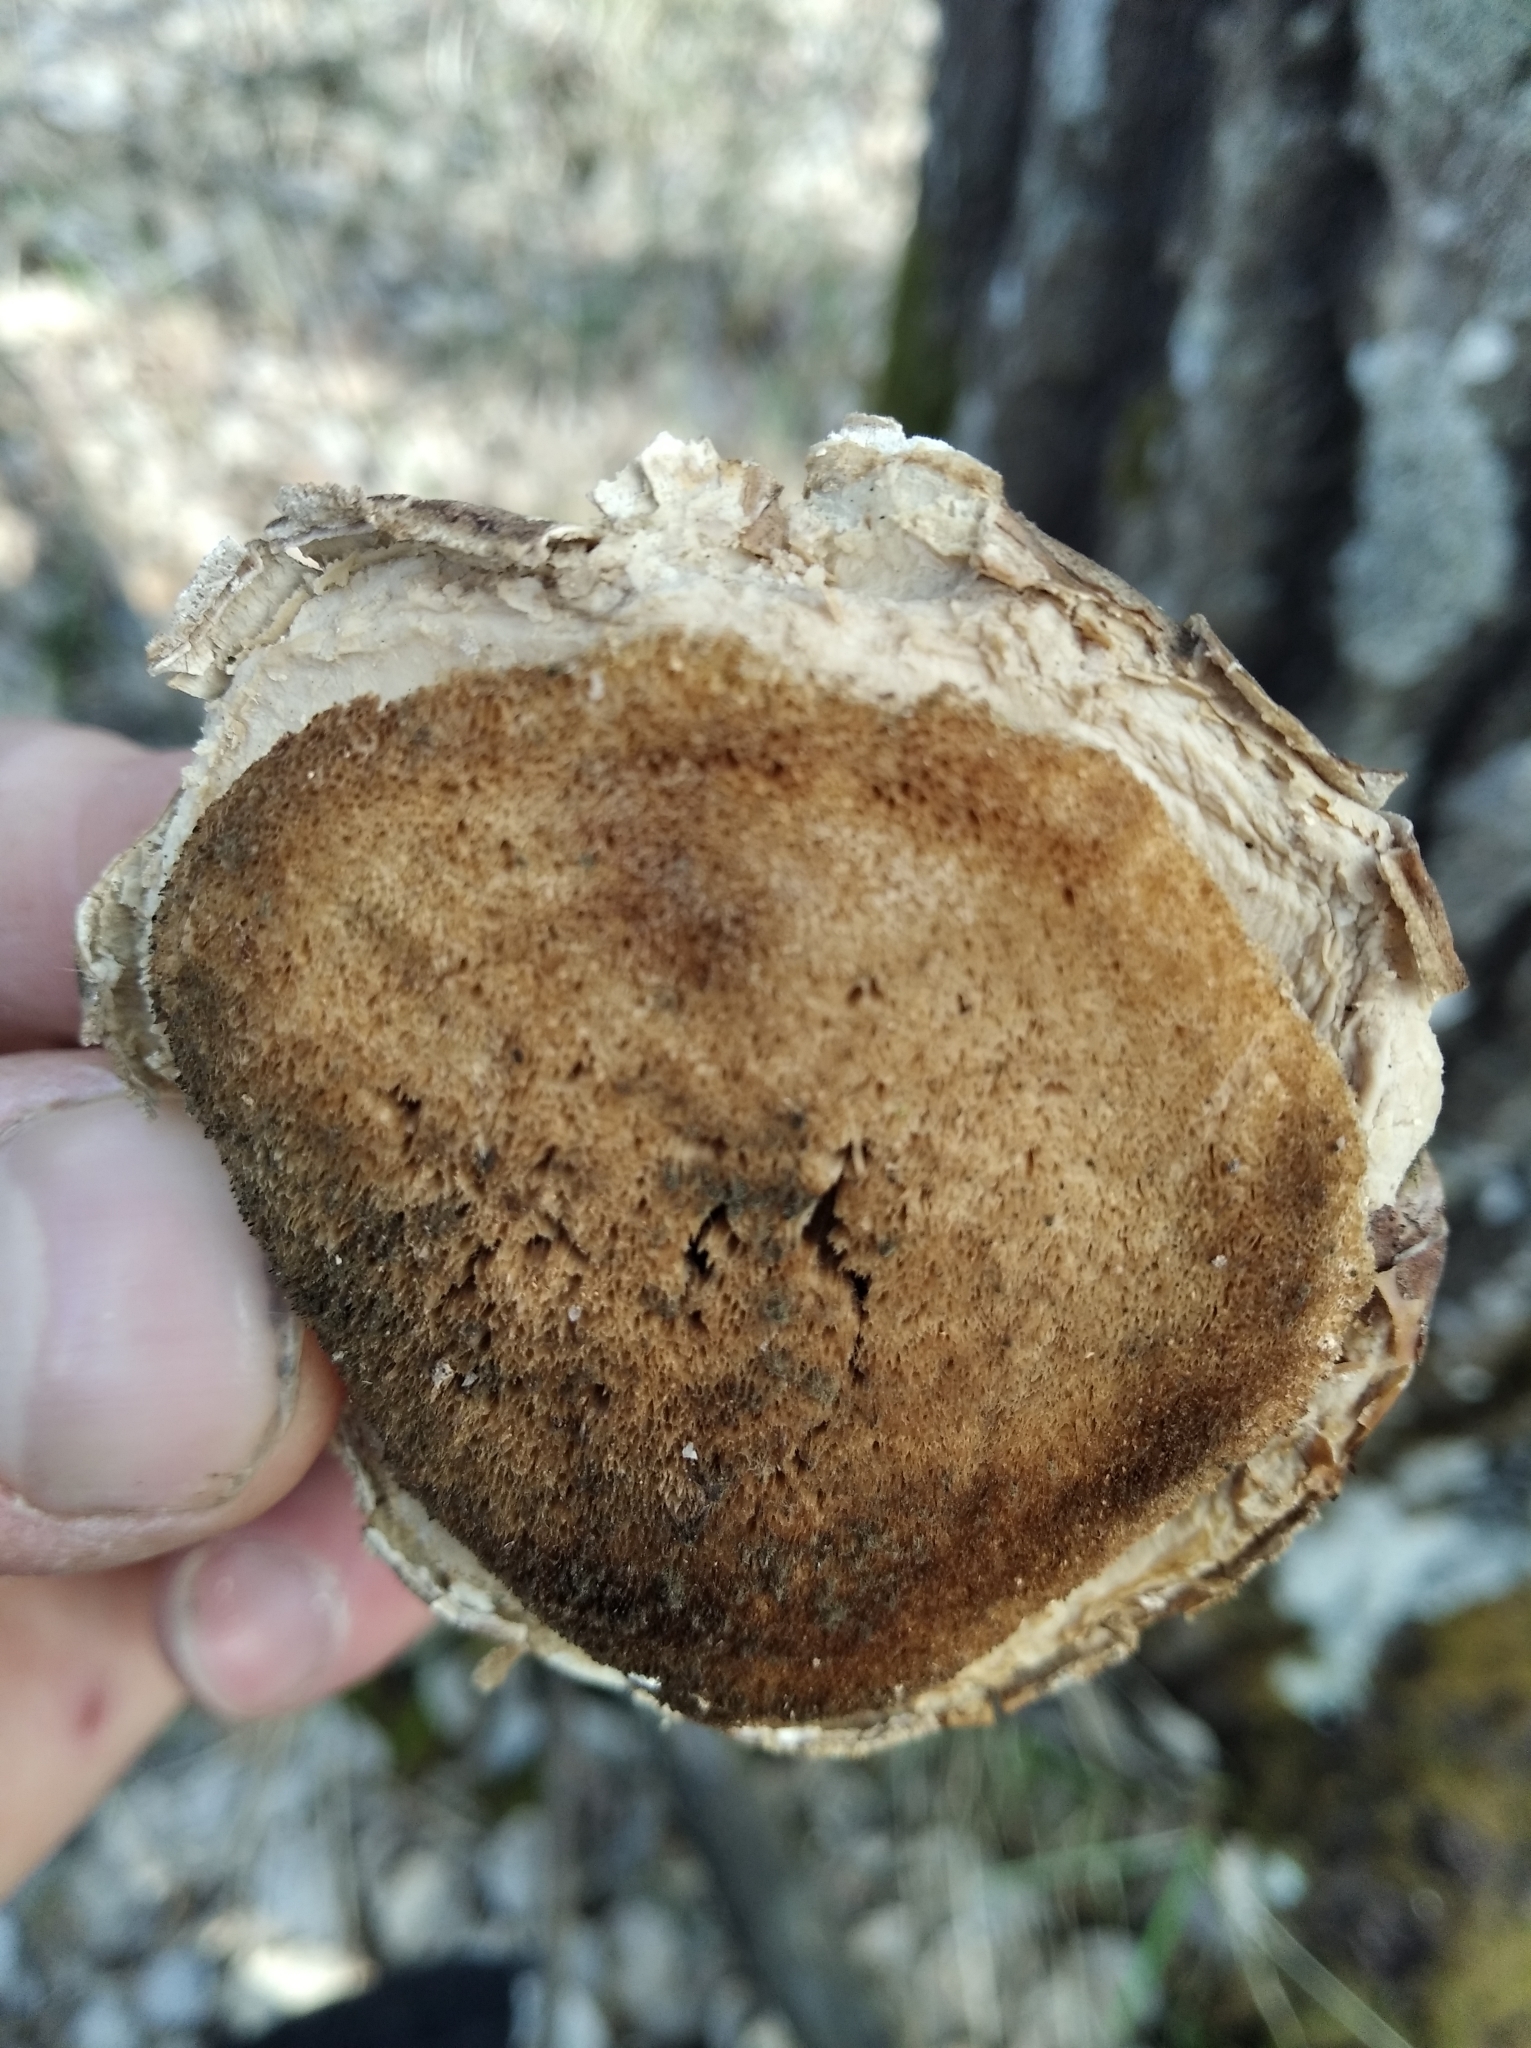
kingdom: Fungi
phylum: Basidiomycota
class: Agaricomycetes
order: Polyporales
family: Fomitopsidaceae
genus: Fomitopsis
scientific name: Fomitopsis betulina
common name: Birch polypore
